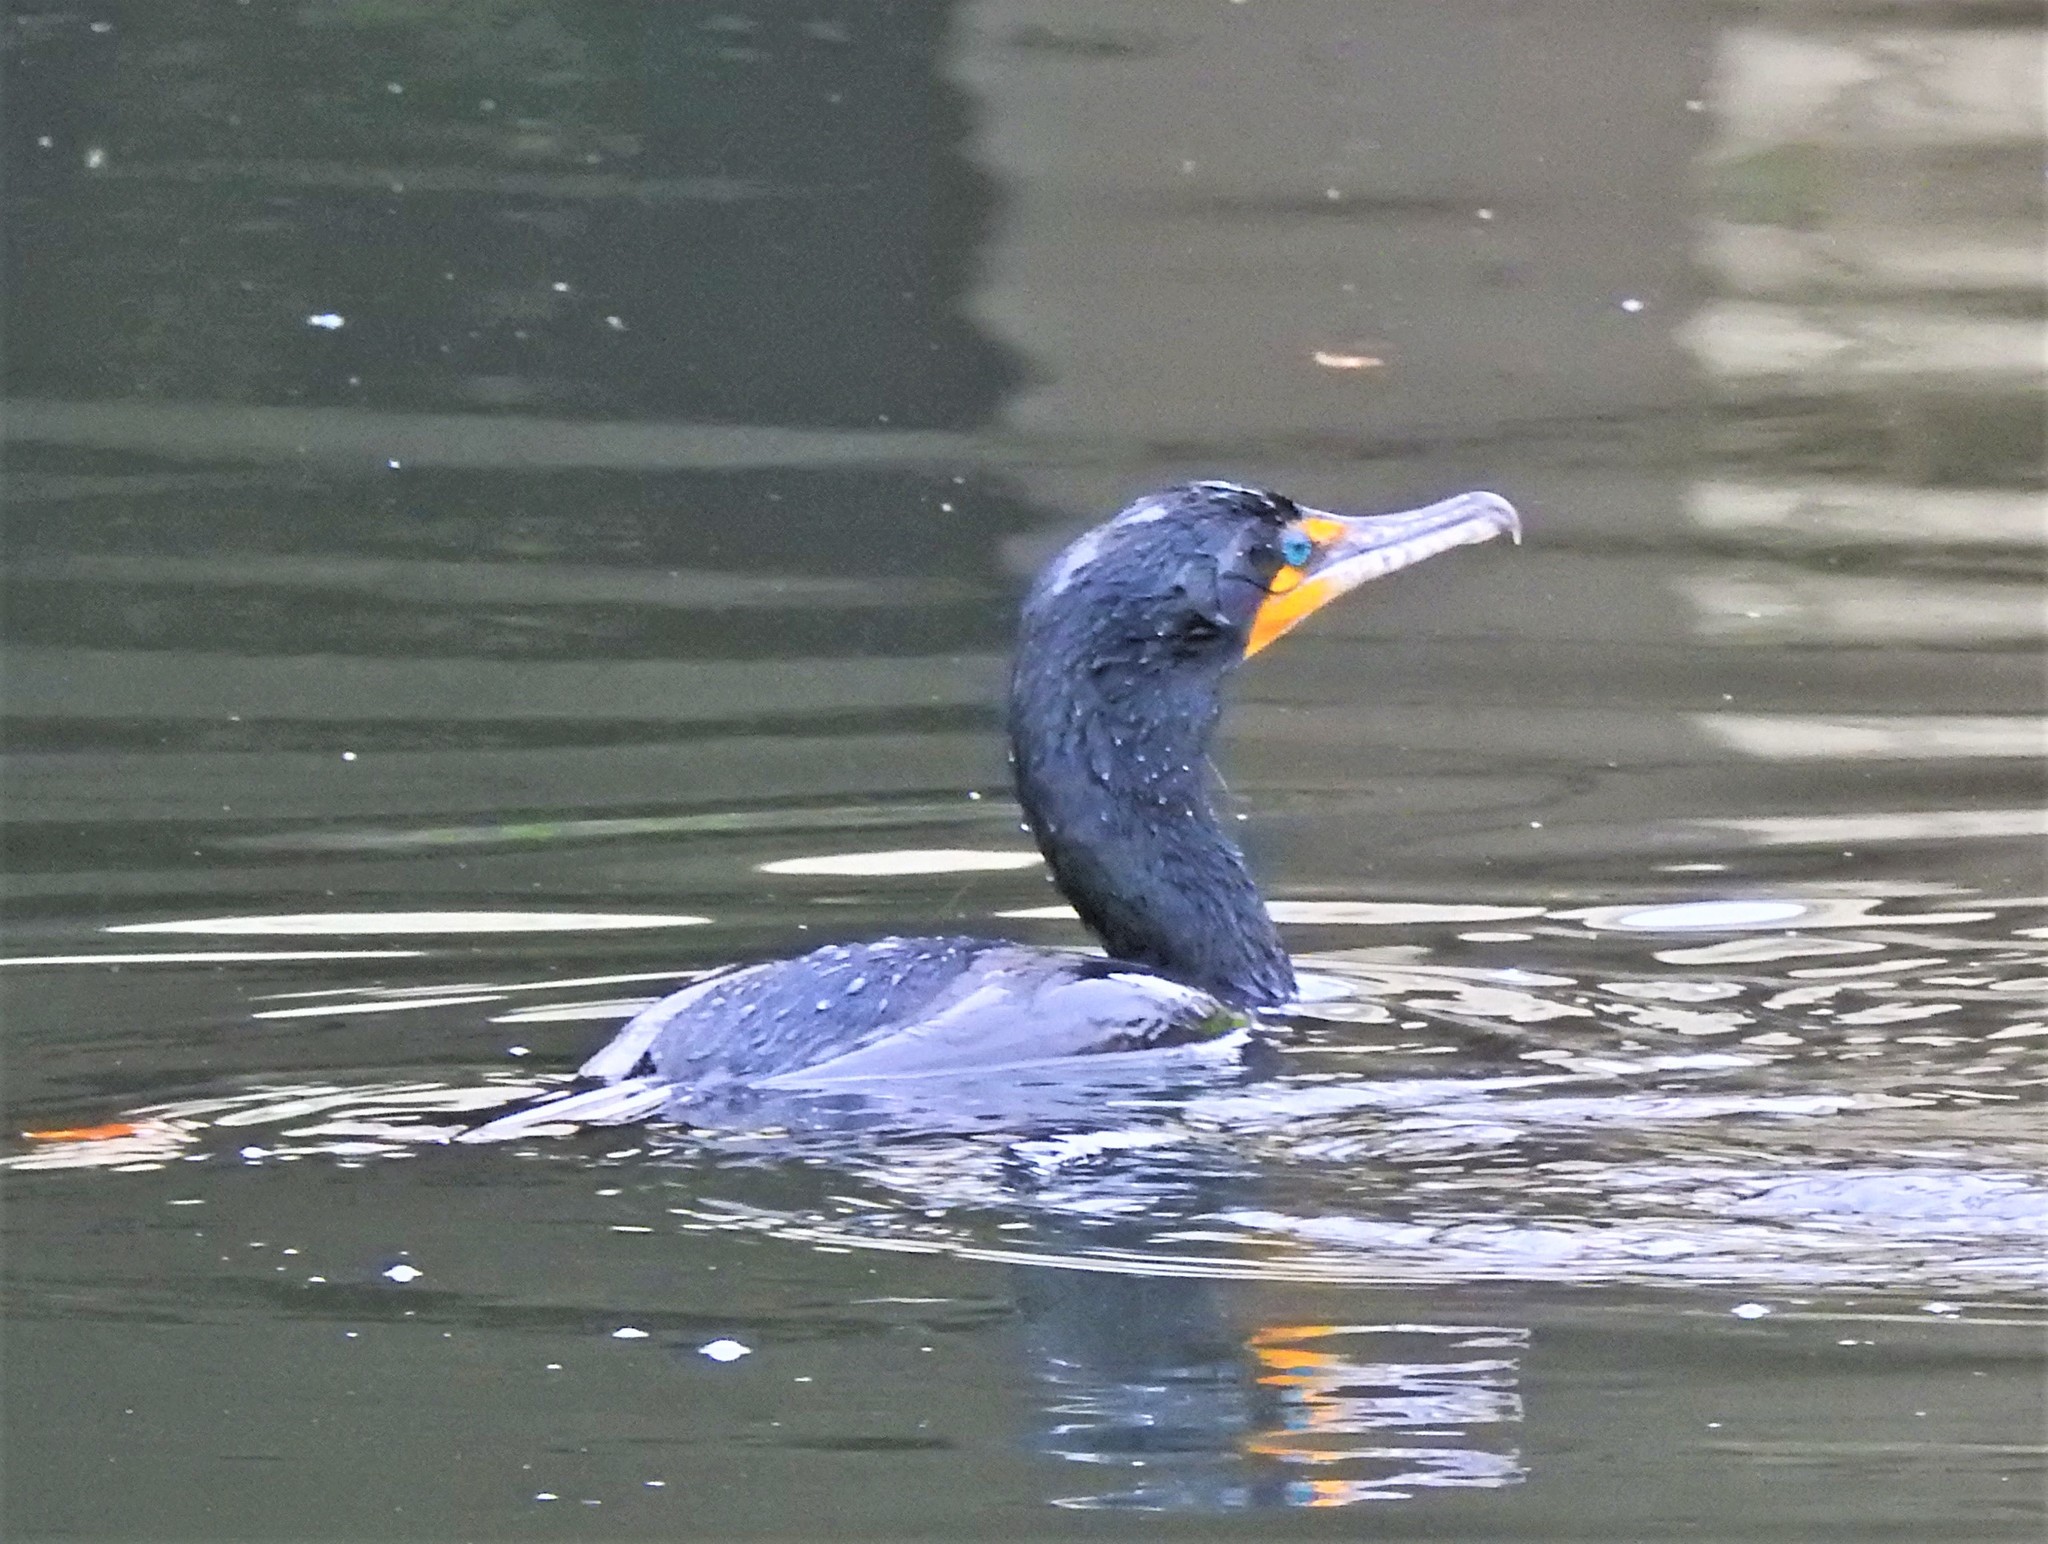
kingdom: Animalia
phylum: Chordata
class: Aves
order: Suliformes
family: Phalacrocoracidae
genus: Phalacrocorax
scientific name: Phalacrocorax auritus
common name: Double-crested cormorant
